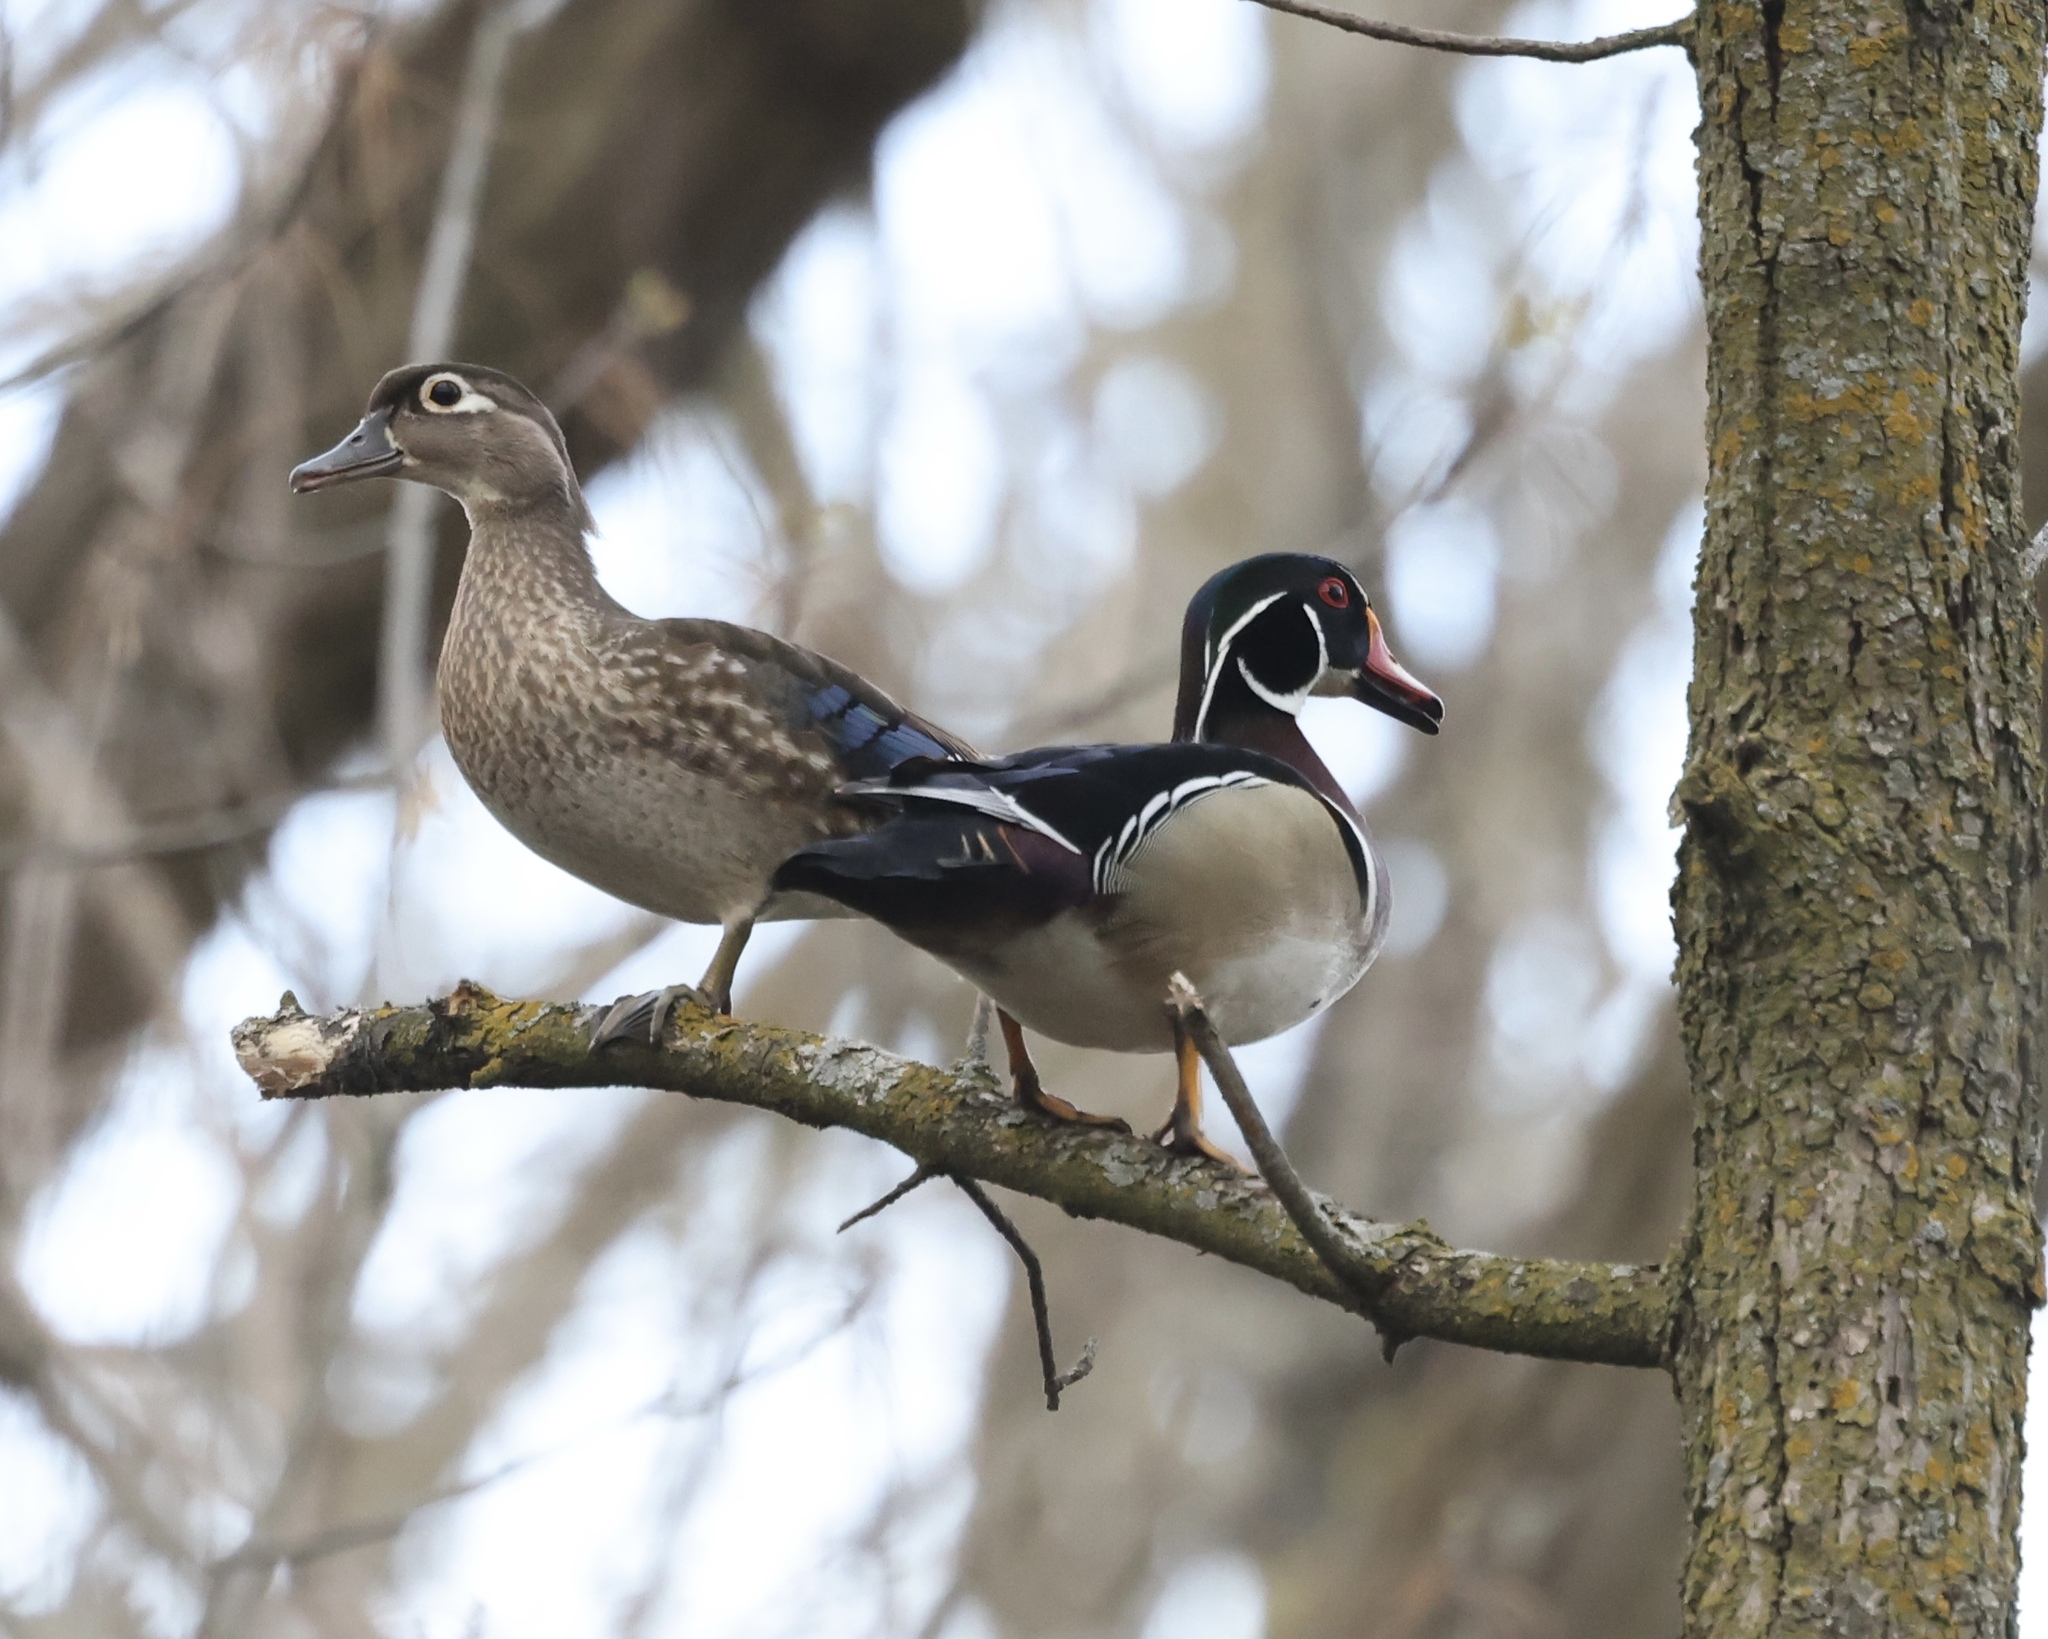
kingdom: Animalia
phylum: Chordata
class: Aves
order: Anseriformes
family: Anatidae
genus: Aix
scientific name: Aix sponsa
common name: Wood duck
